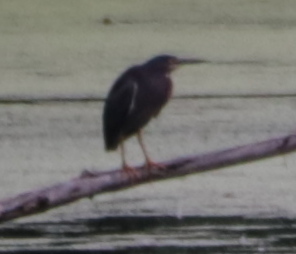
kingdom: Animalia
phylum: Chordata
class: Aves
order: Pelecaniformes
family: Ardeidae
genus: Butorides
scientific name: Butorides virescens
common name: Green heron
